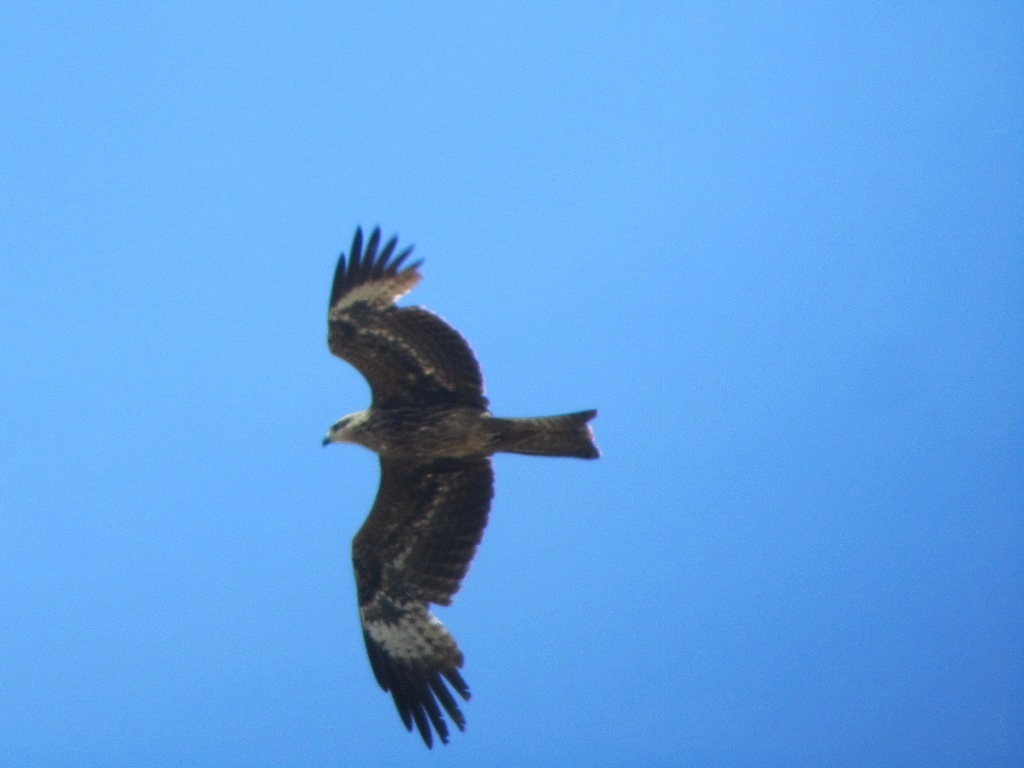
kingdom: Animalia
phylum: Chordata
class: Aves
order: Accipitriformes
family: Accipitridae
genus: Milvus
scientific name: Milvus migrans
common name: Black kite
